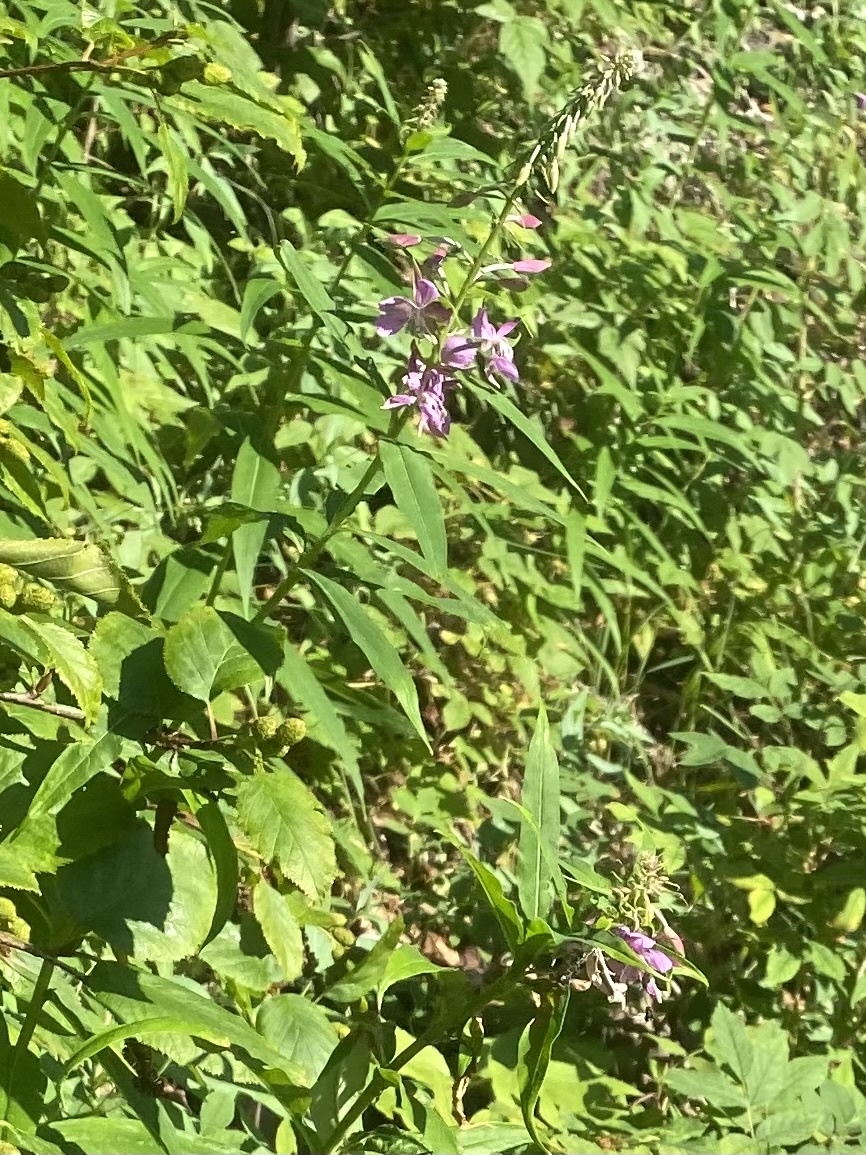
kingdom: Plantae
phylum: Tracheophyta
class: Magnoliopsida
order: Myrtales
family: Onagraceae
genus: Chamaenerion
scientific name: Chamaenerion angustifolium
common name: Fireweed
